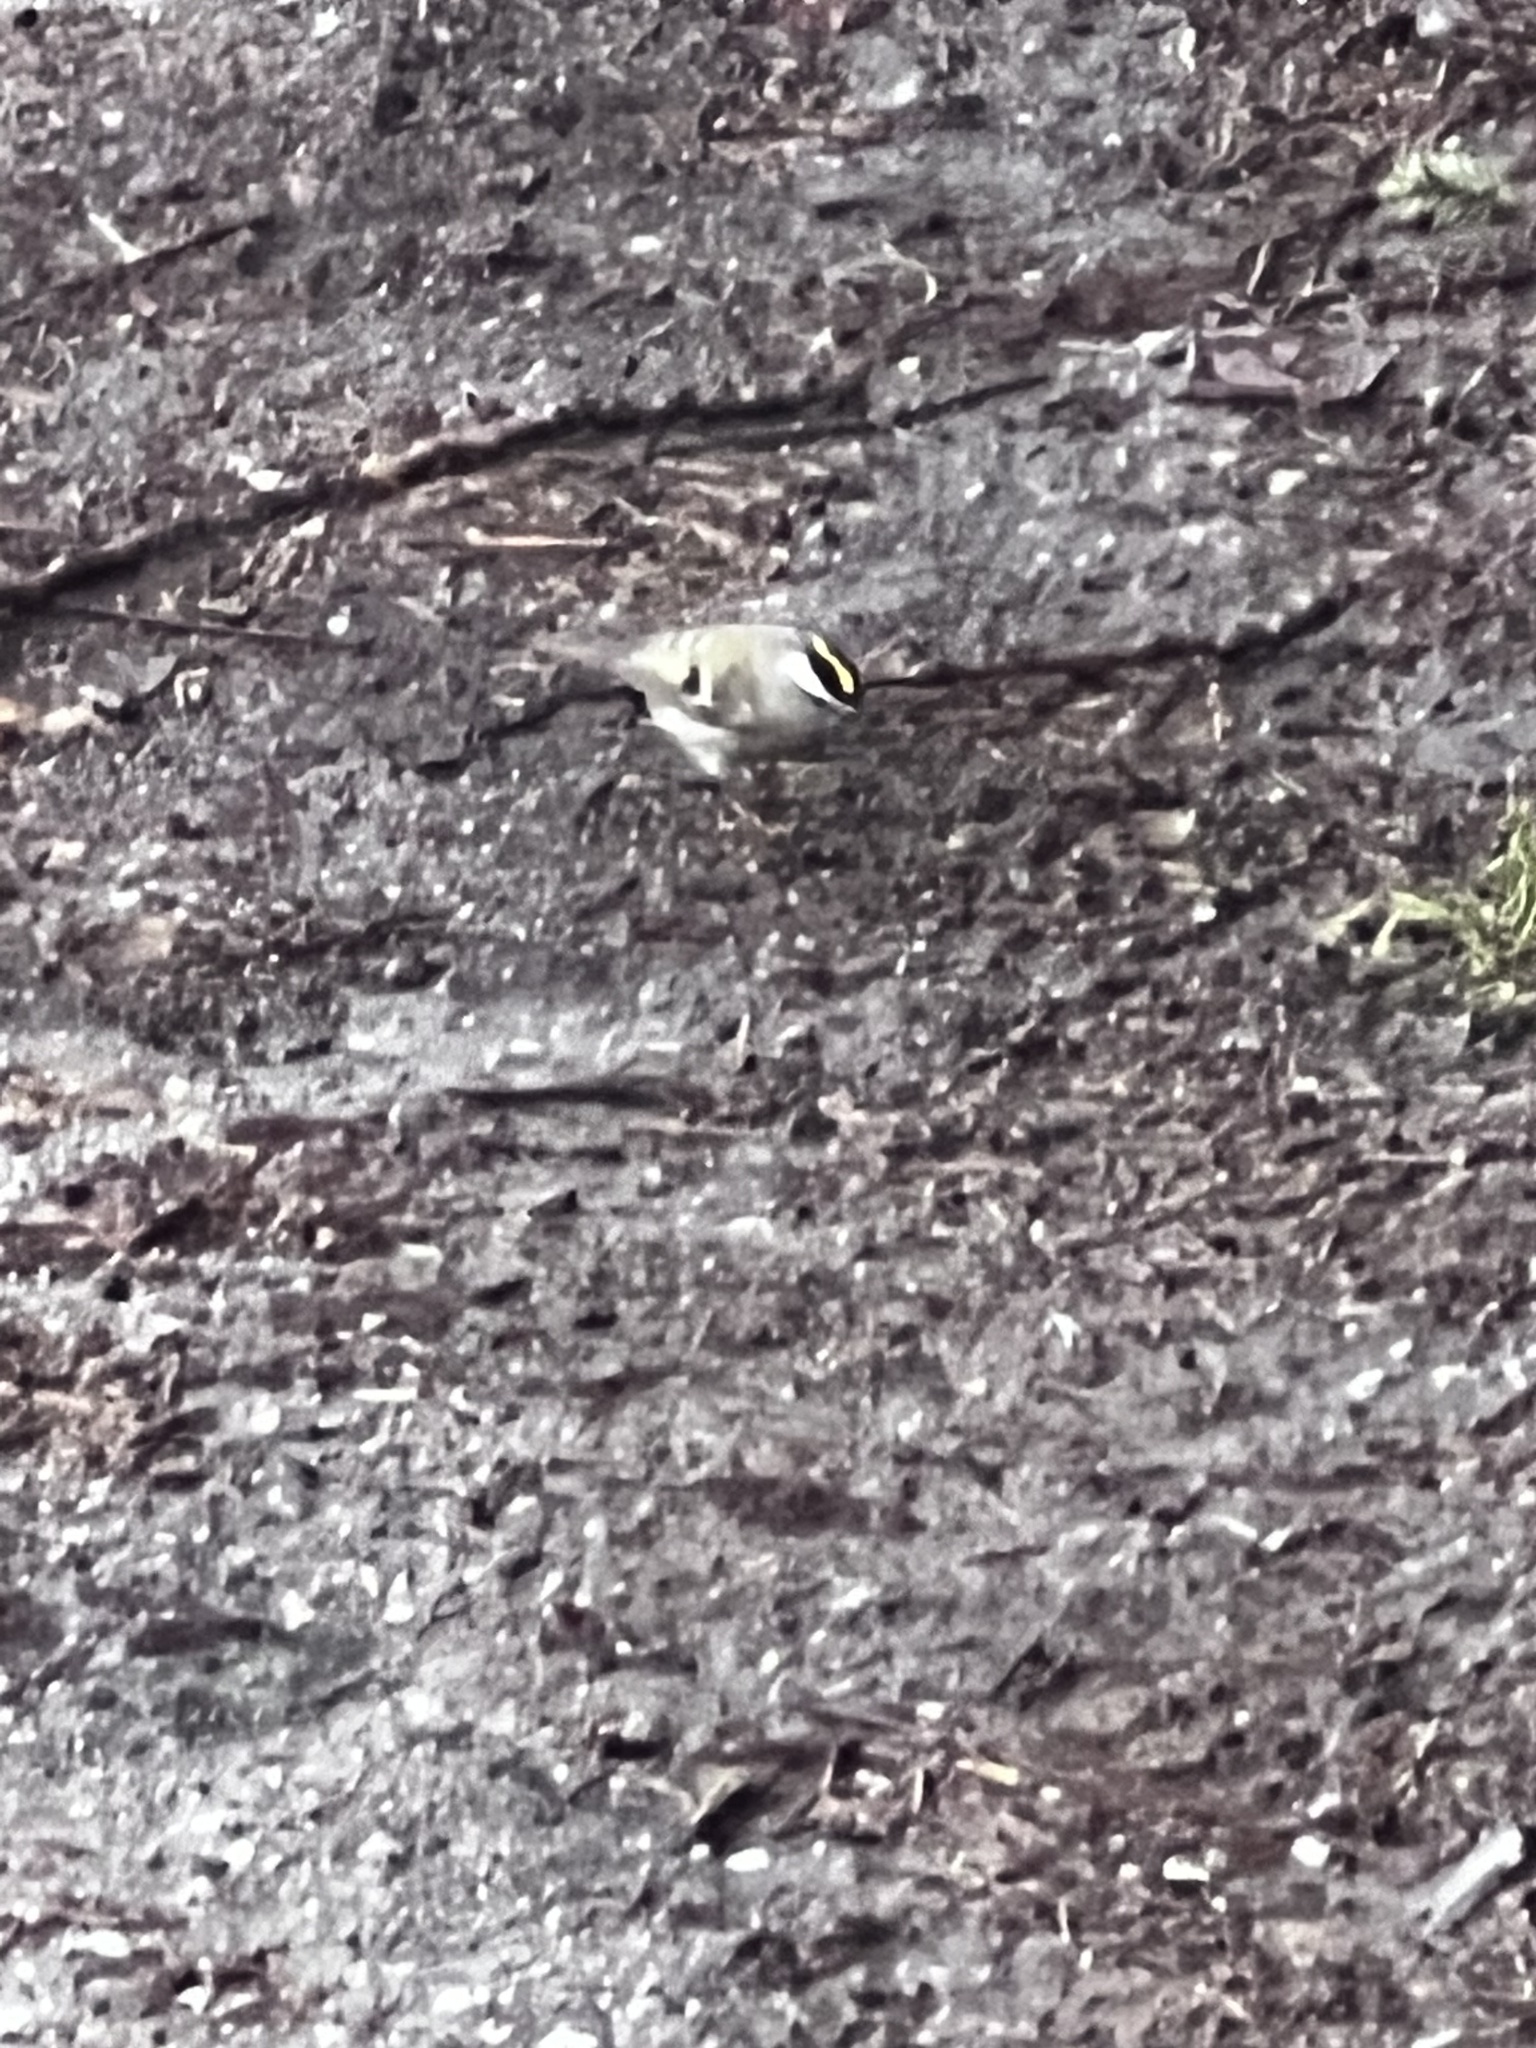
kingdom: Animalia
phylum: Chordata
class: Aves
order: Passeriformes
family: Regulidae
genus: Regulus
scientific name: Regulus satrapa
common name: Golden-crowned kinglet
